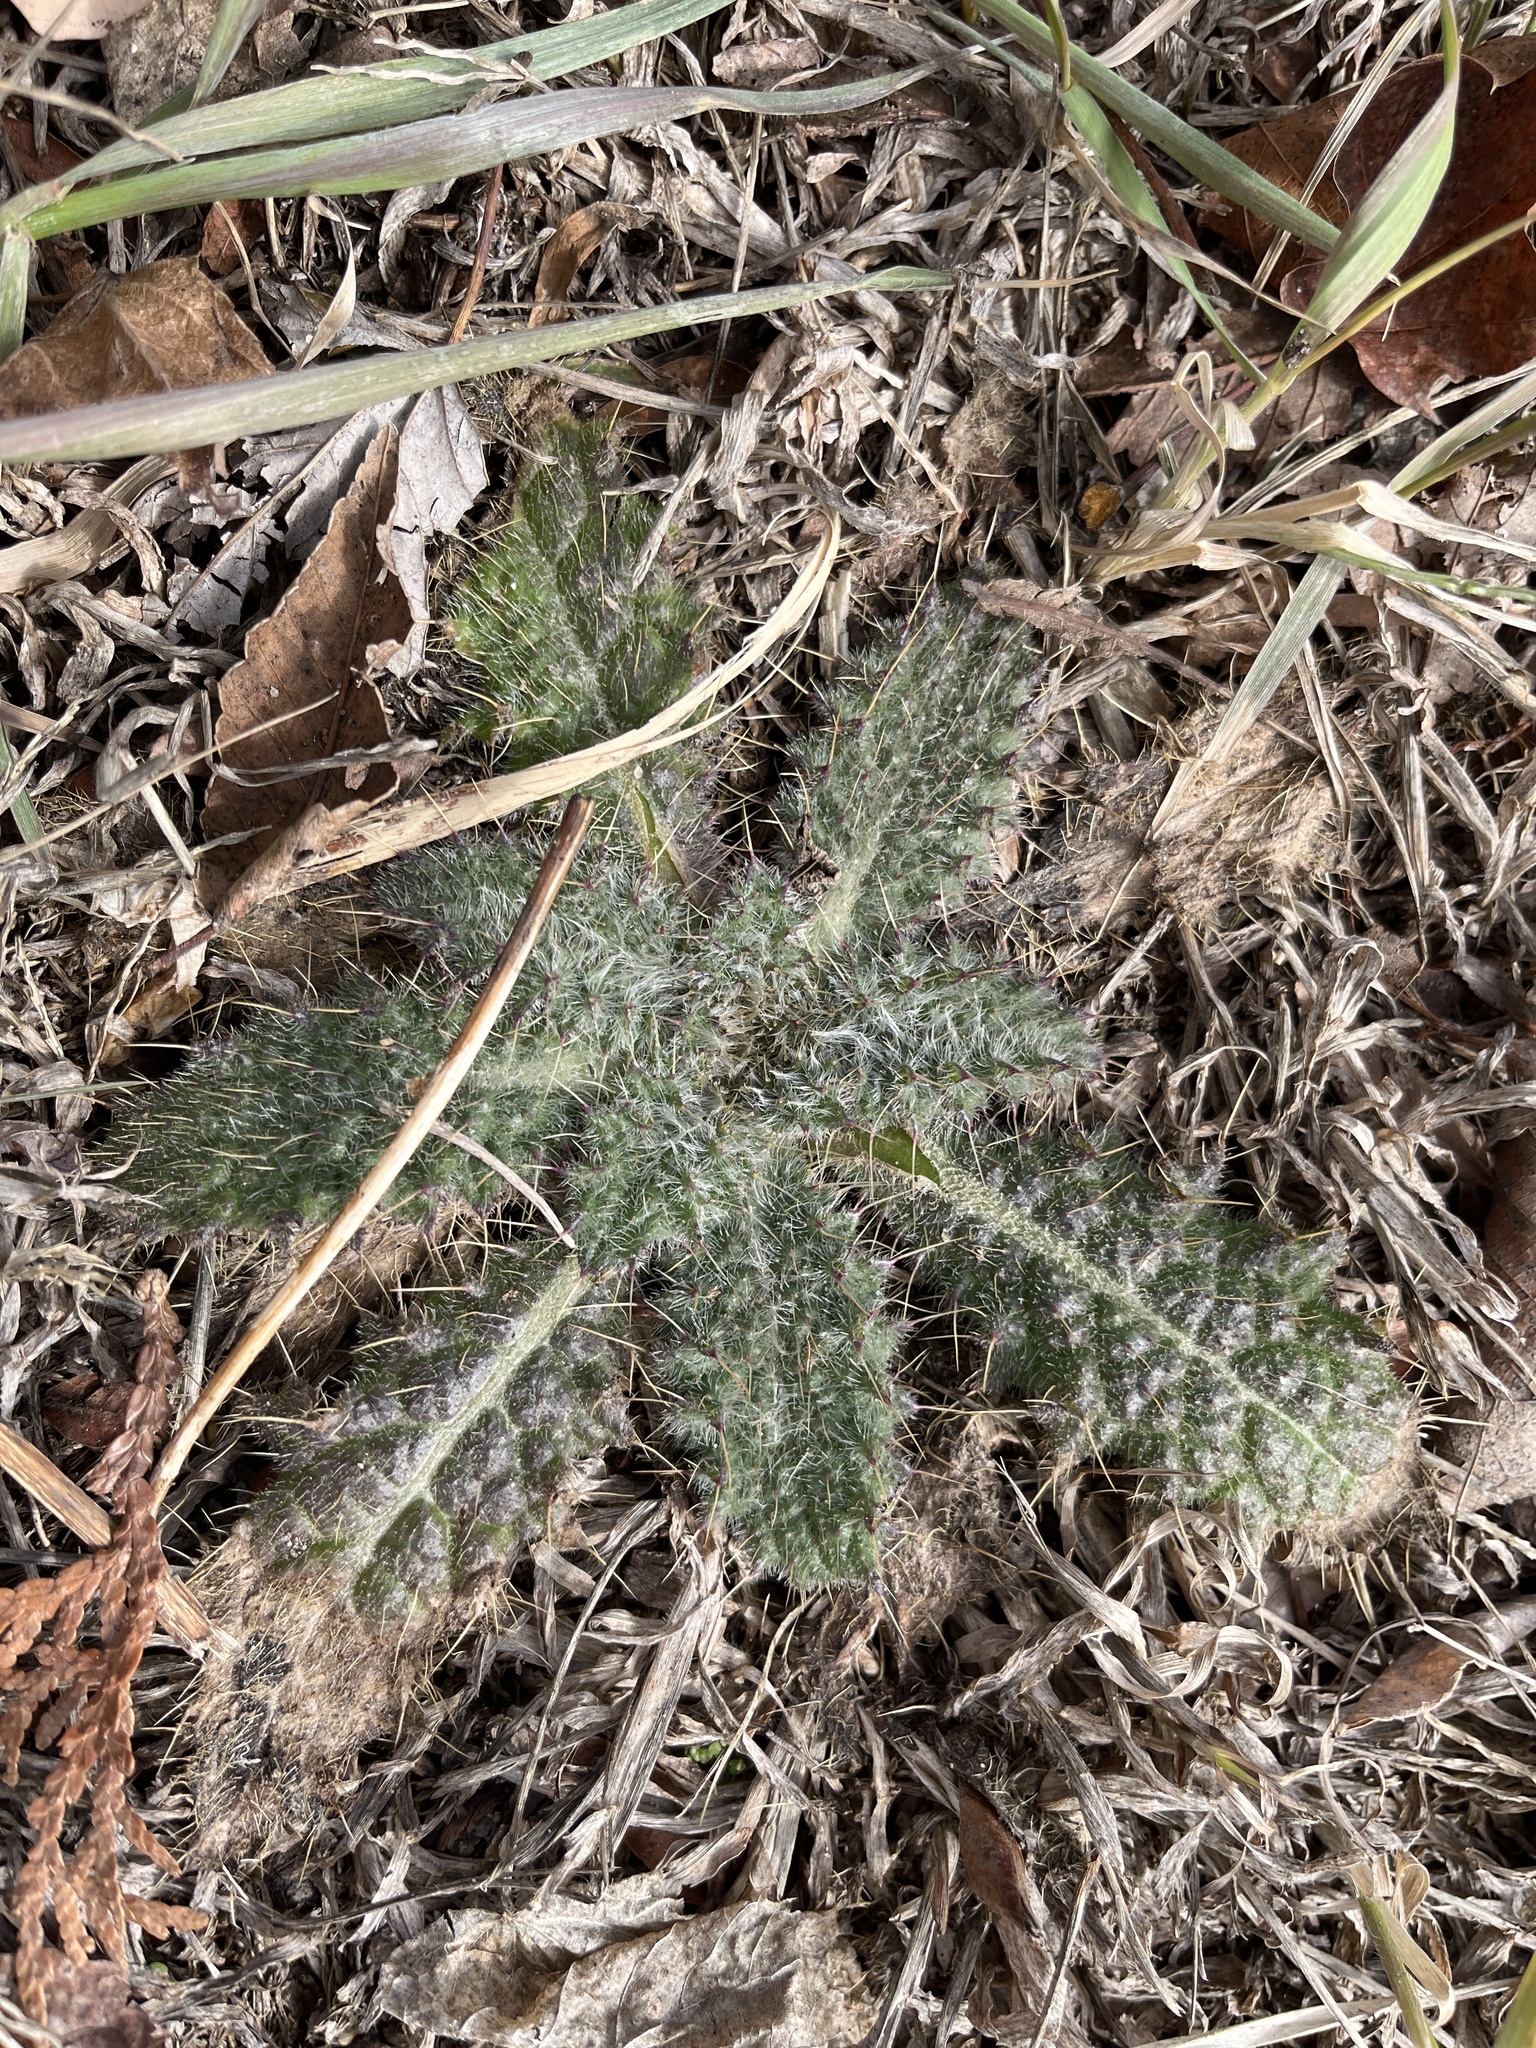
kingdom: Plantae
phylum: Tracheophyta
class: Magnoliopsida
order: Asterales
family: Asteraceae
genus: Cirsium
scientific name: Cirsium vulgare
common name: Bull thistle
